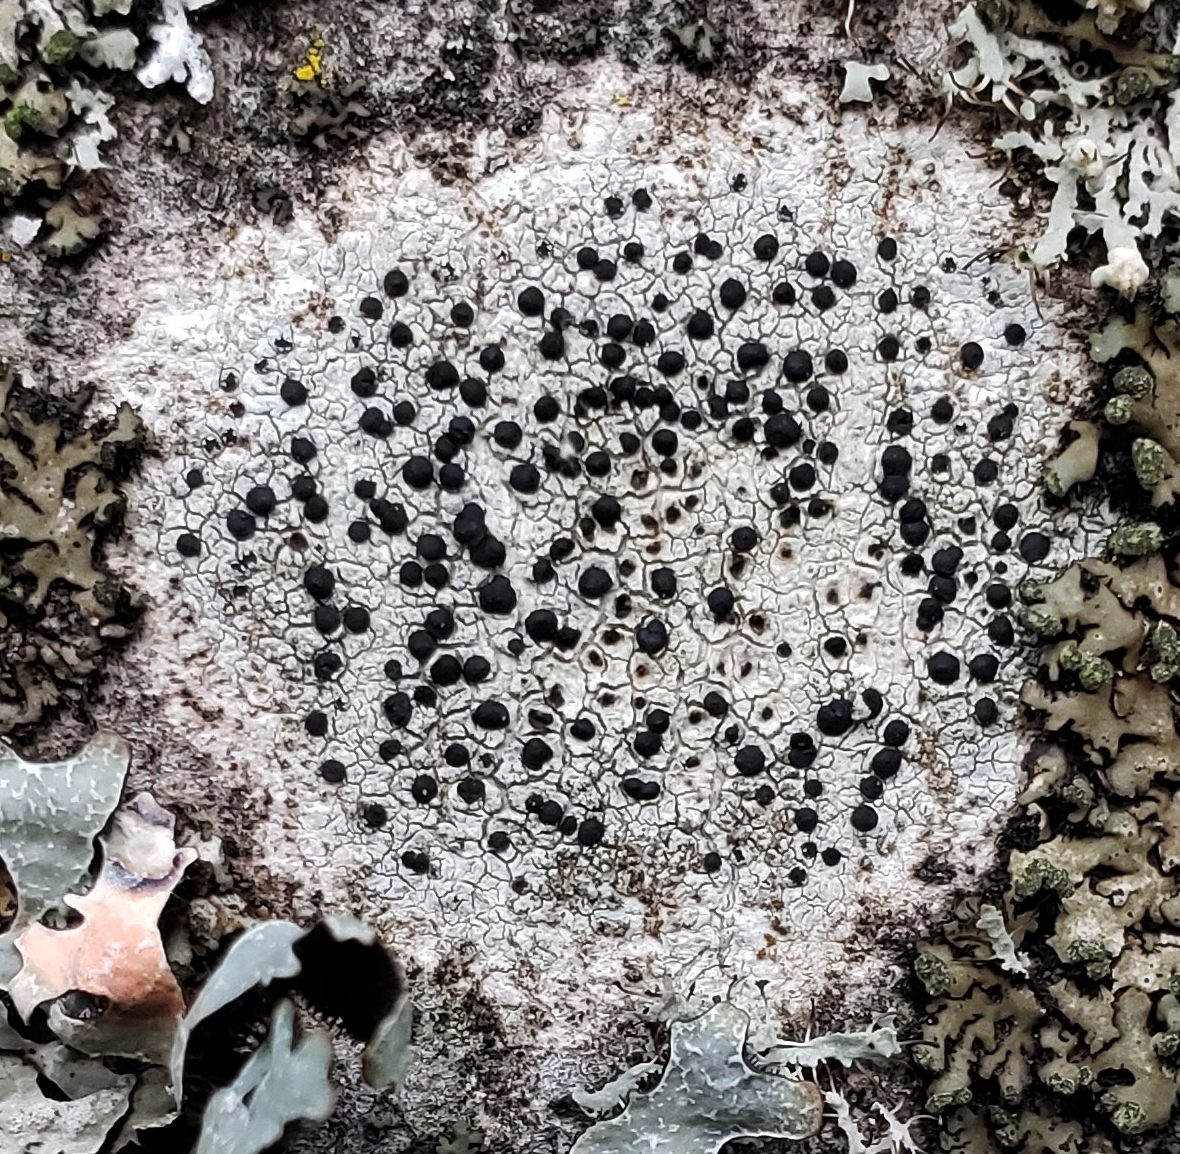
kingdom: Fungi
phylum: Ascomycota
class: Lecanoromycetes
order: Caliciales
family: Caliciaceae
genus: Buellia
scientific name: Buellia erubescens
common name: Common button lichen
